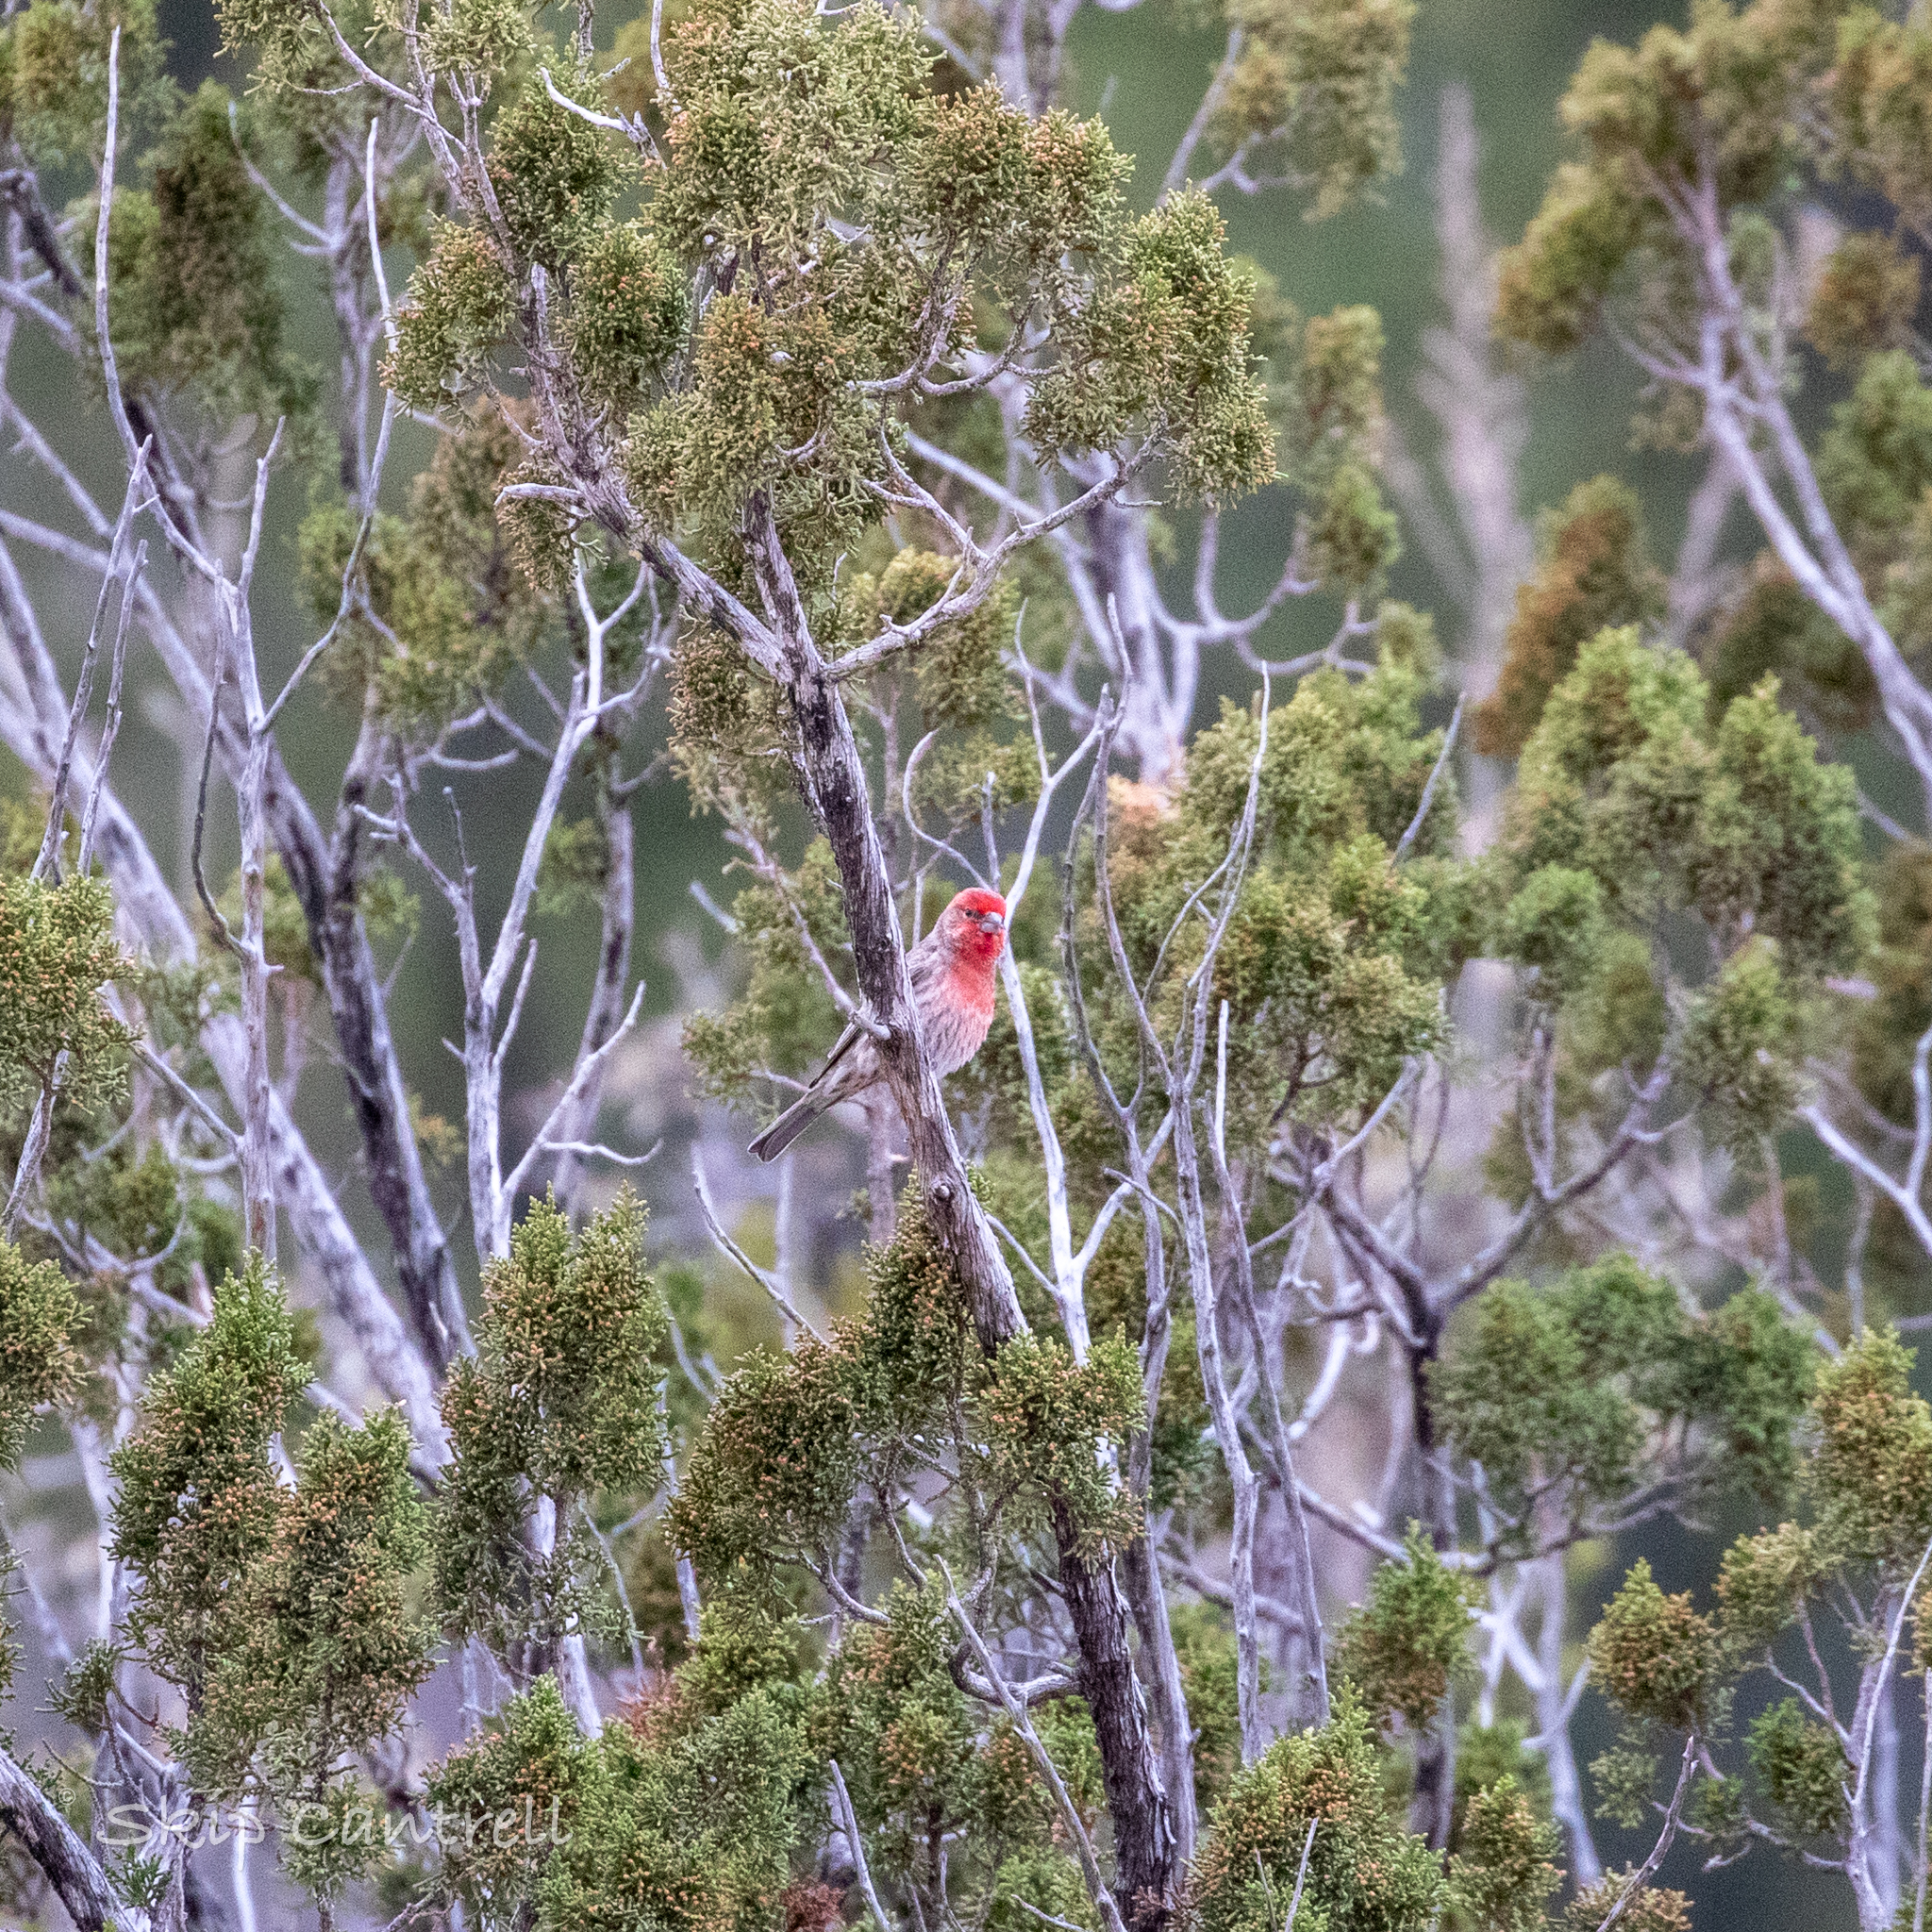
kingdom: Animalia
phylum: Chordata
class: Aves
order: Passeriformes
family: Fringillidae
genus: Haemorhous
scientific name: Haemorhous mexicanus
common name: House finch
